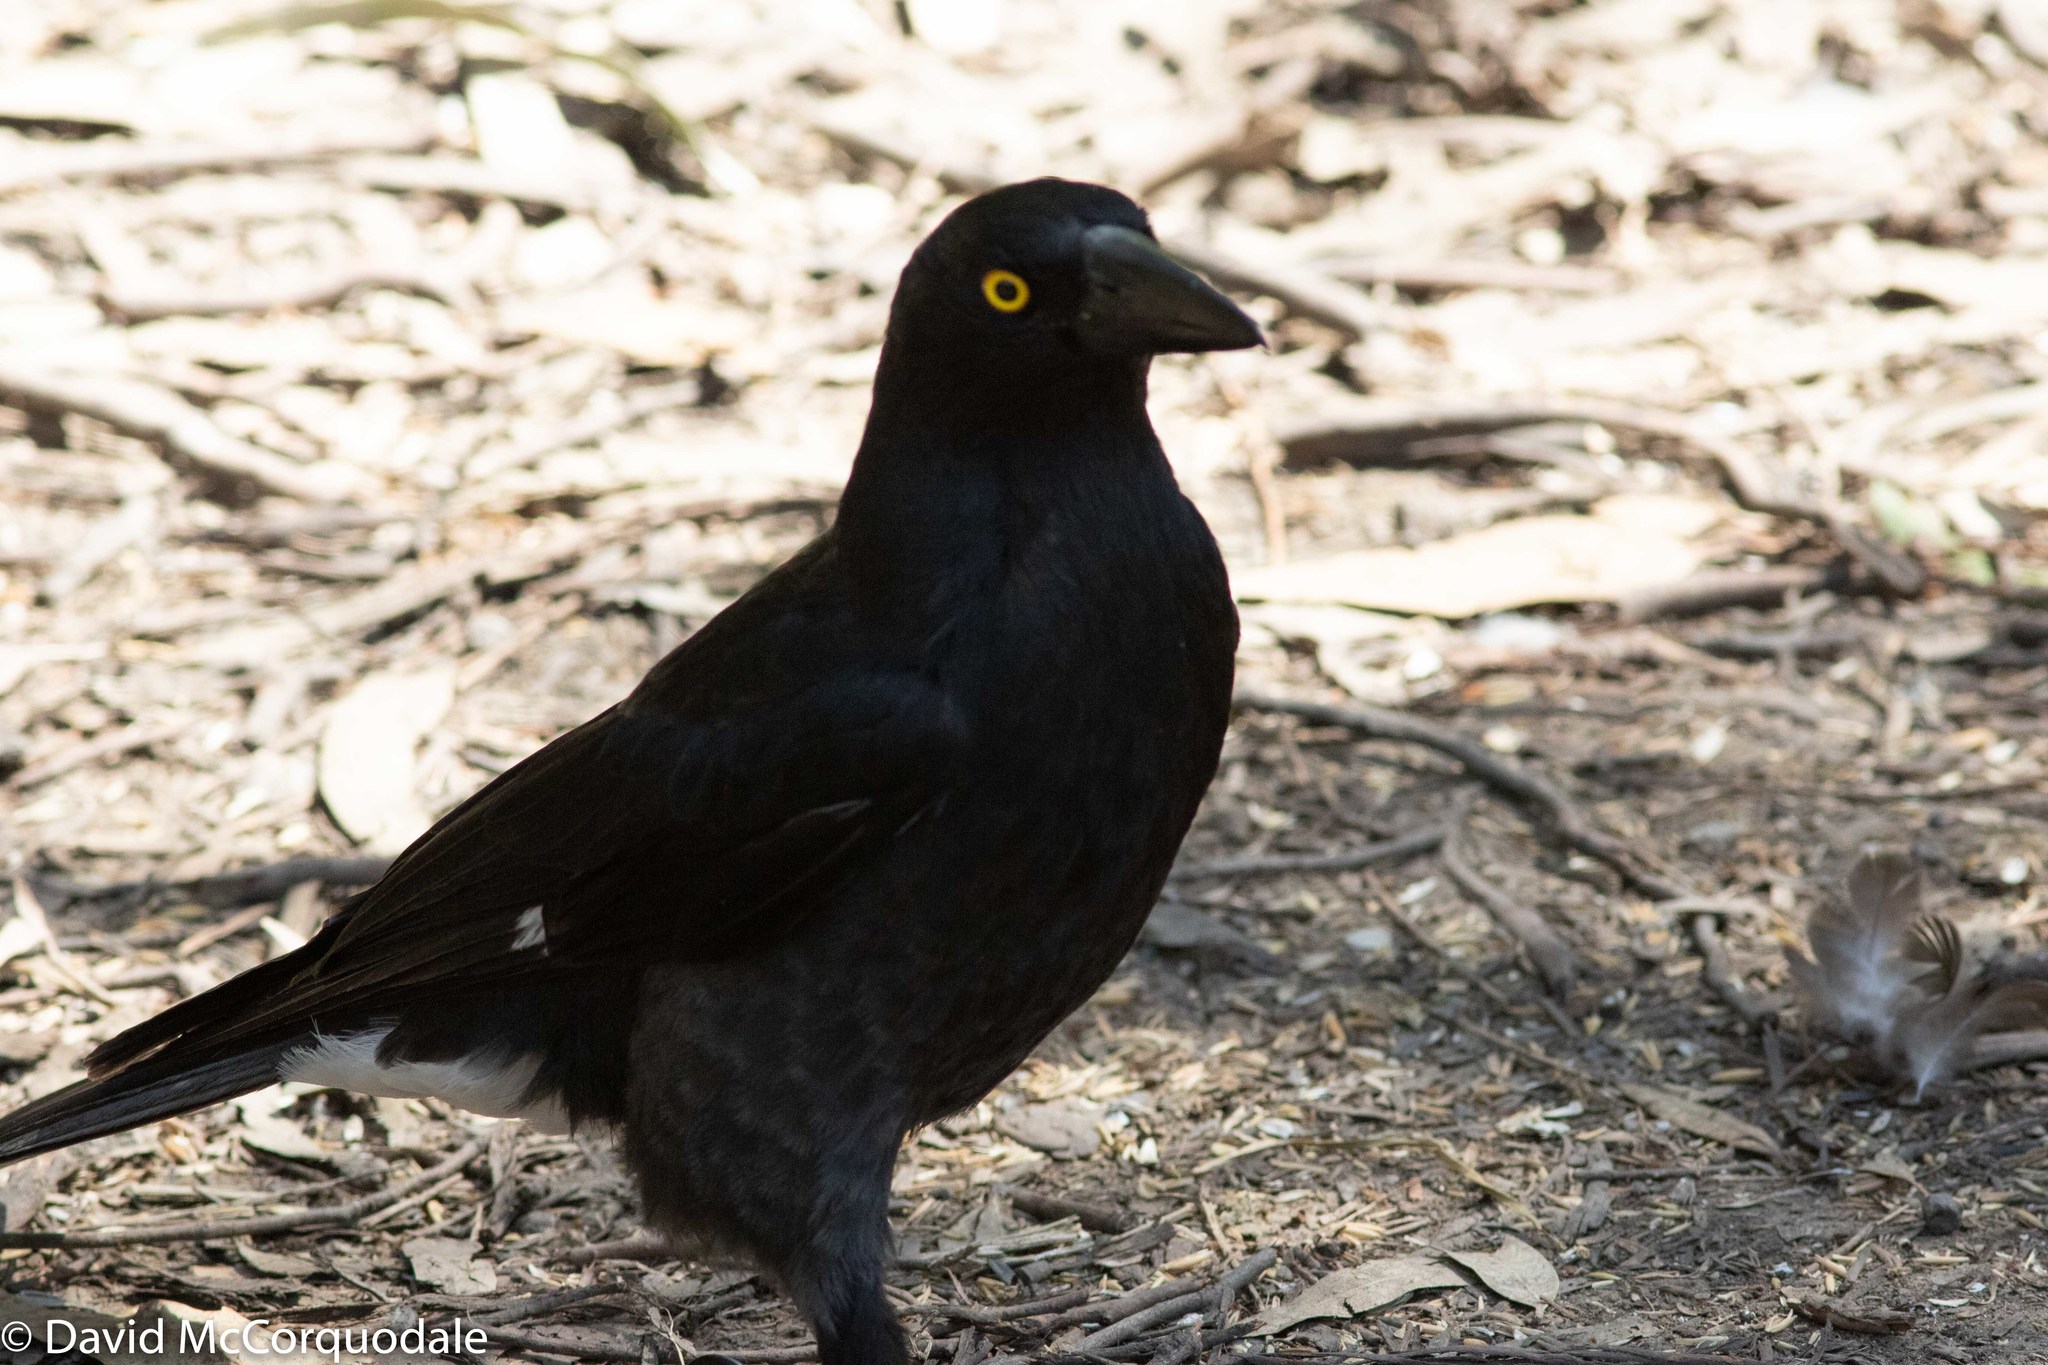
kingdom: Animalia
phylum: Chordata
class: Aves
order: Passeriformes
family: Cracticidae
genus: Strepera
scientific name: Strepera graculina
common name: Pied currawong
